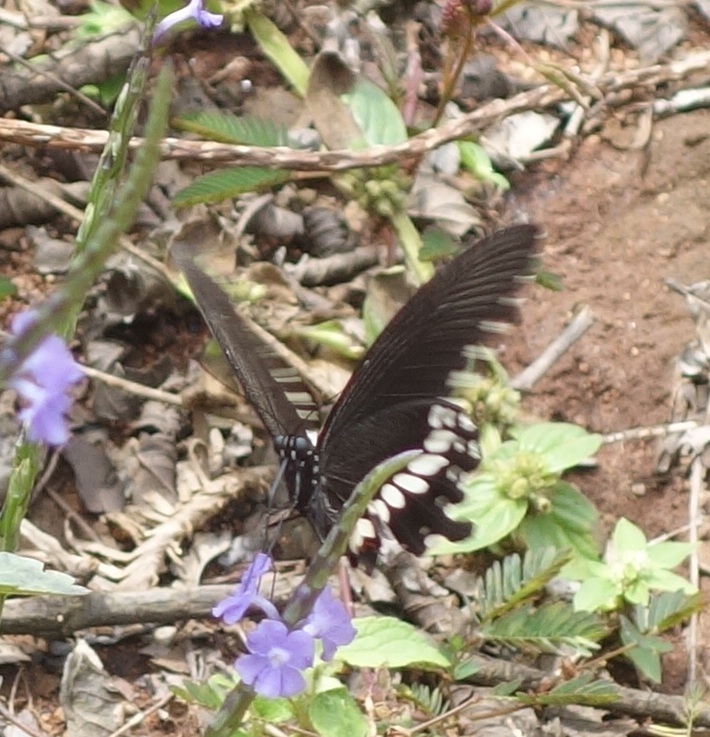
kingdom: Animalia
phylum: Arthropoda
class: Insecta
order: Lepidoptera
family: Papilionidae
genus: Papilio
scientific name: Papilio polytes
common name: Common mormon
